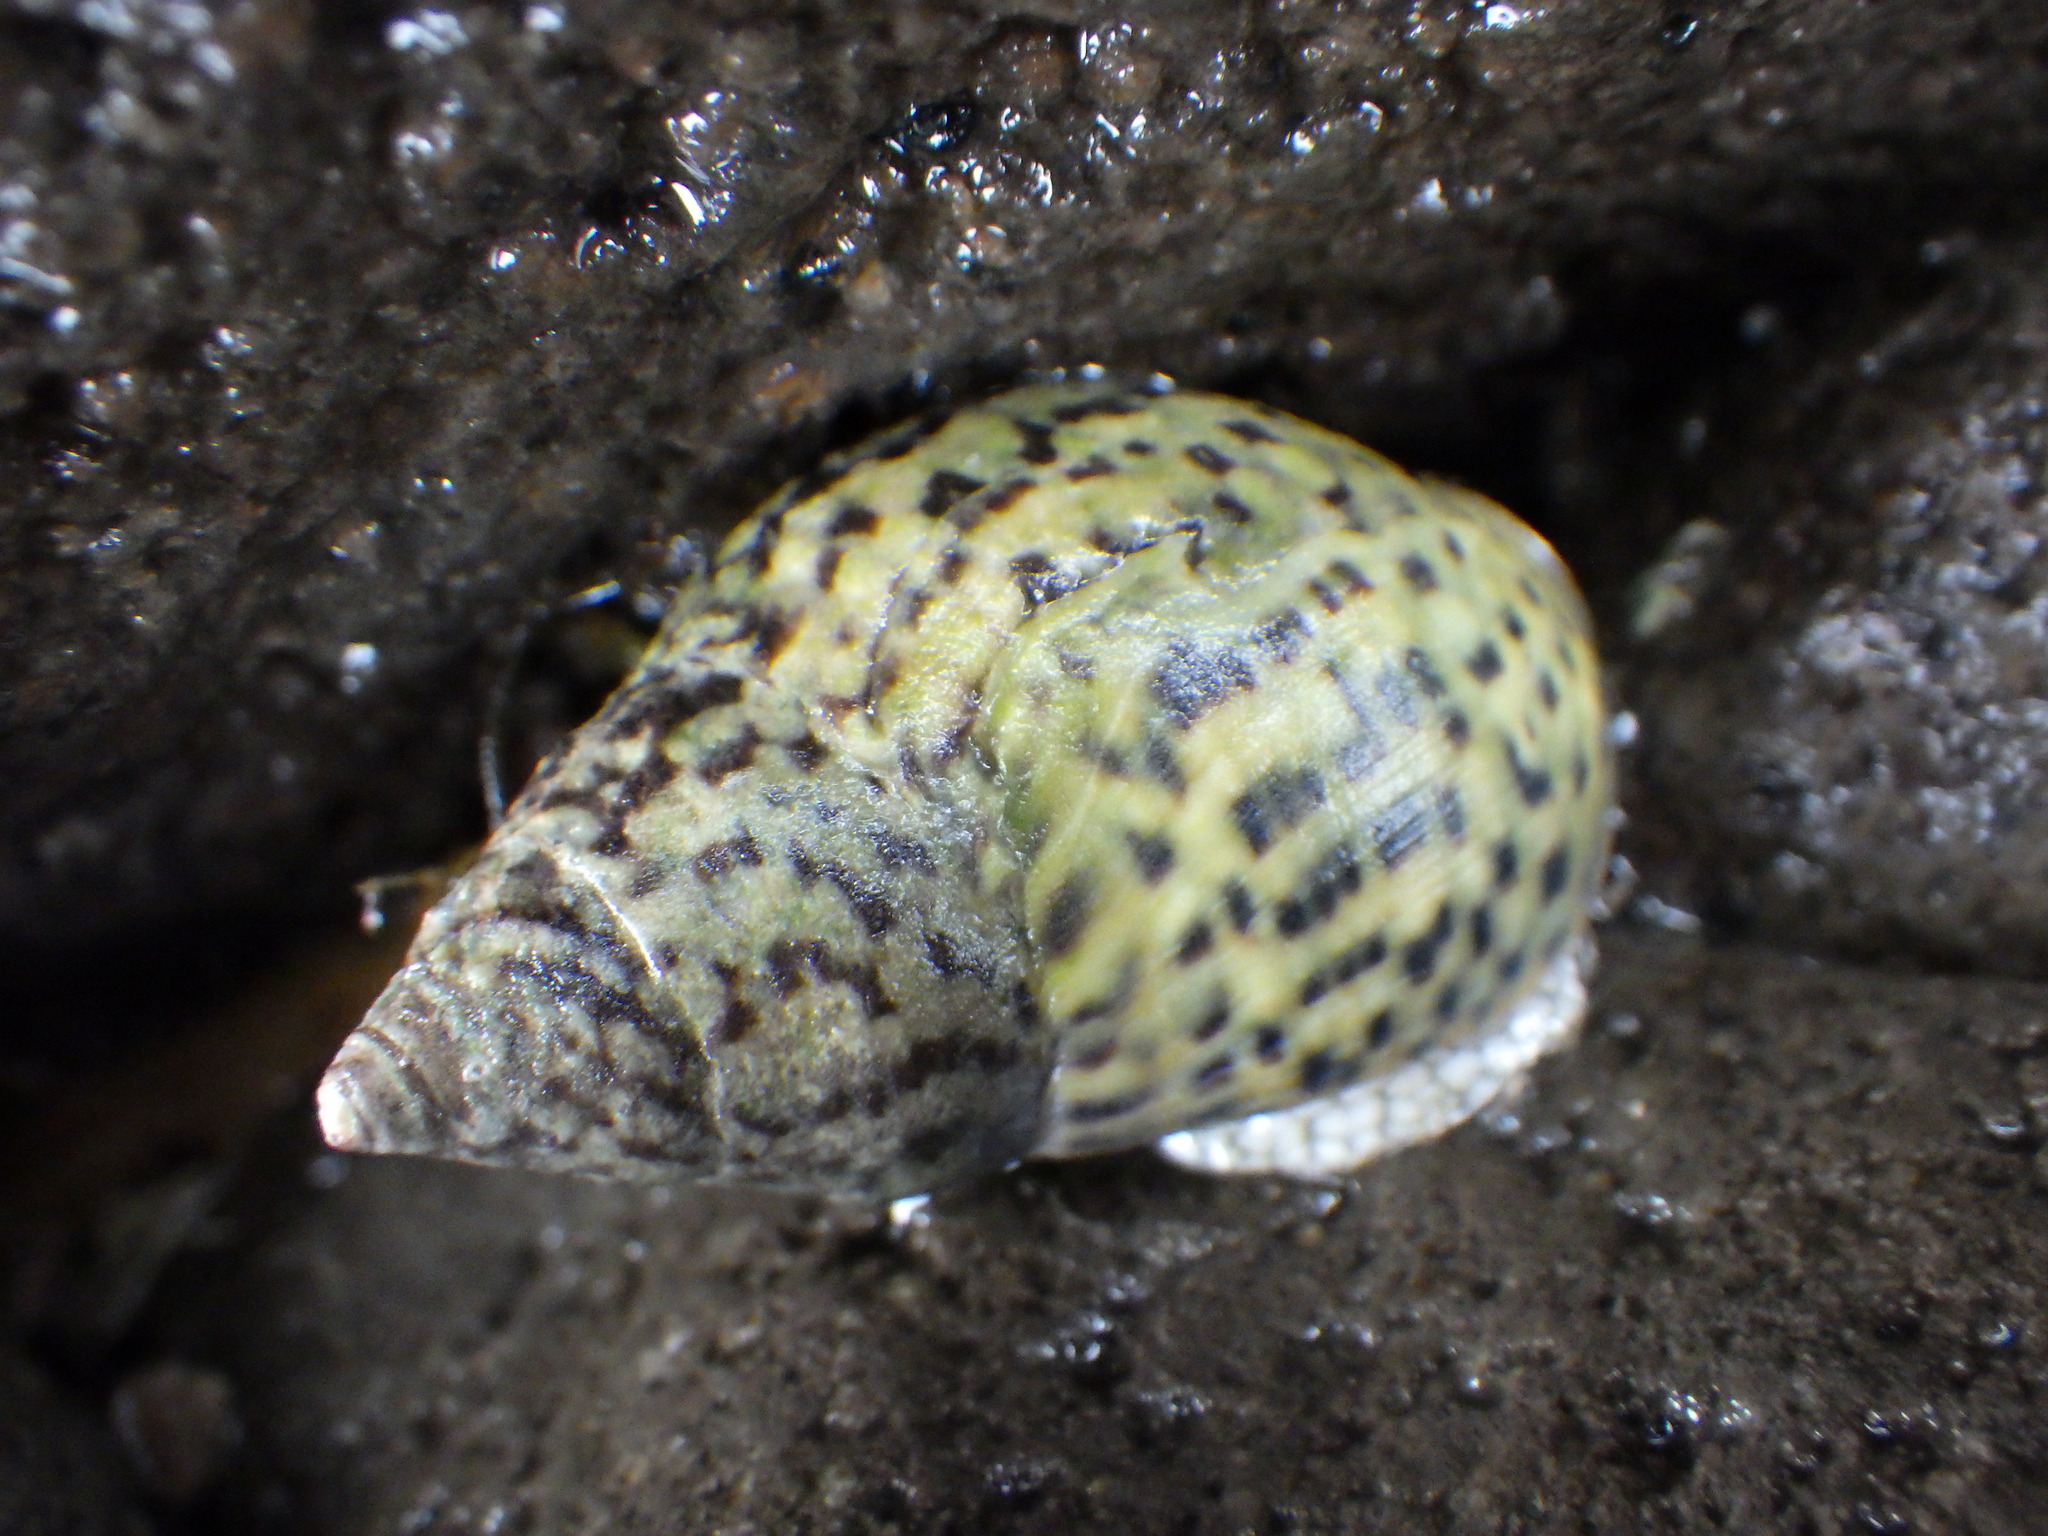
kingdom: Animalia
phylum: Mollusca
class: Gastropoda
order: Neogastropoda
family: Cominellidae
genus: Cominella
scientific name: Cominella maculosa
